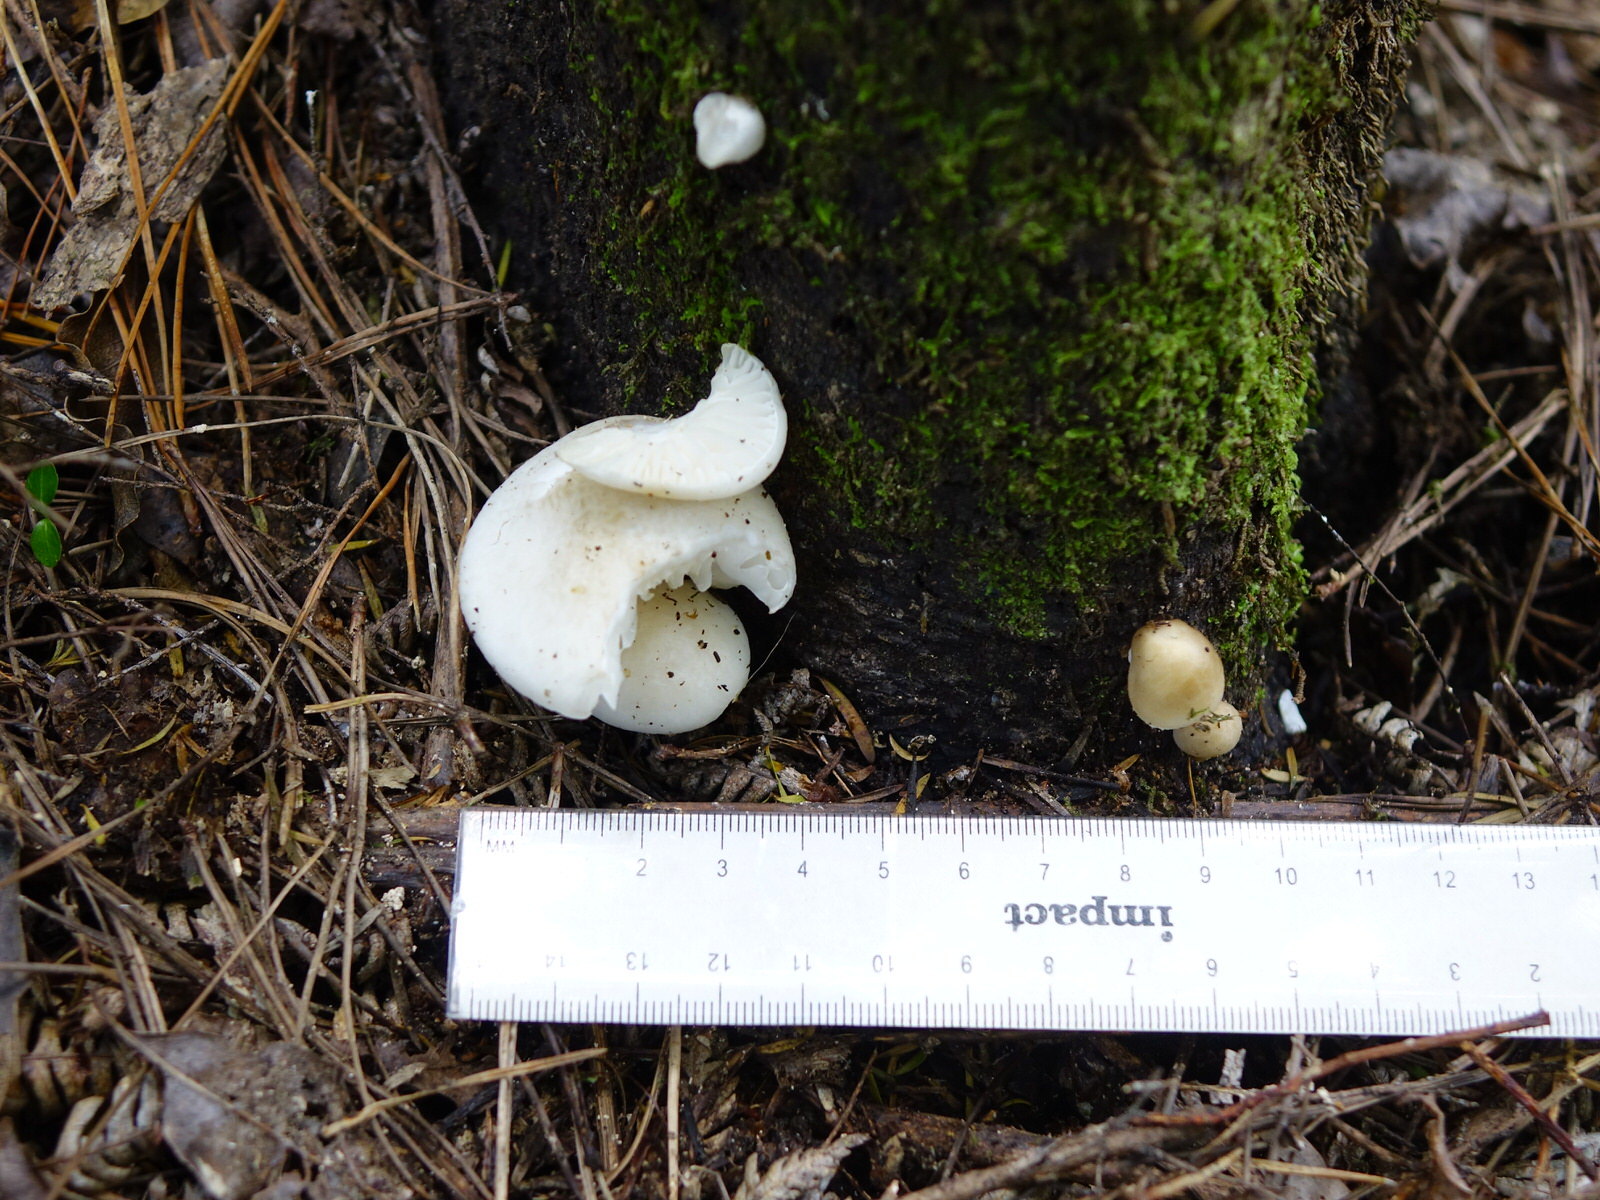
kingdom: Fungi
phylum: Basidiomycota
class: Agaricomycetes
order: Agaricales
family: Physalacriaceae
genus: Oudemansiella
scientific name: Oudemansiella australis
